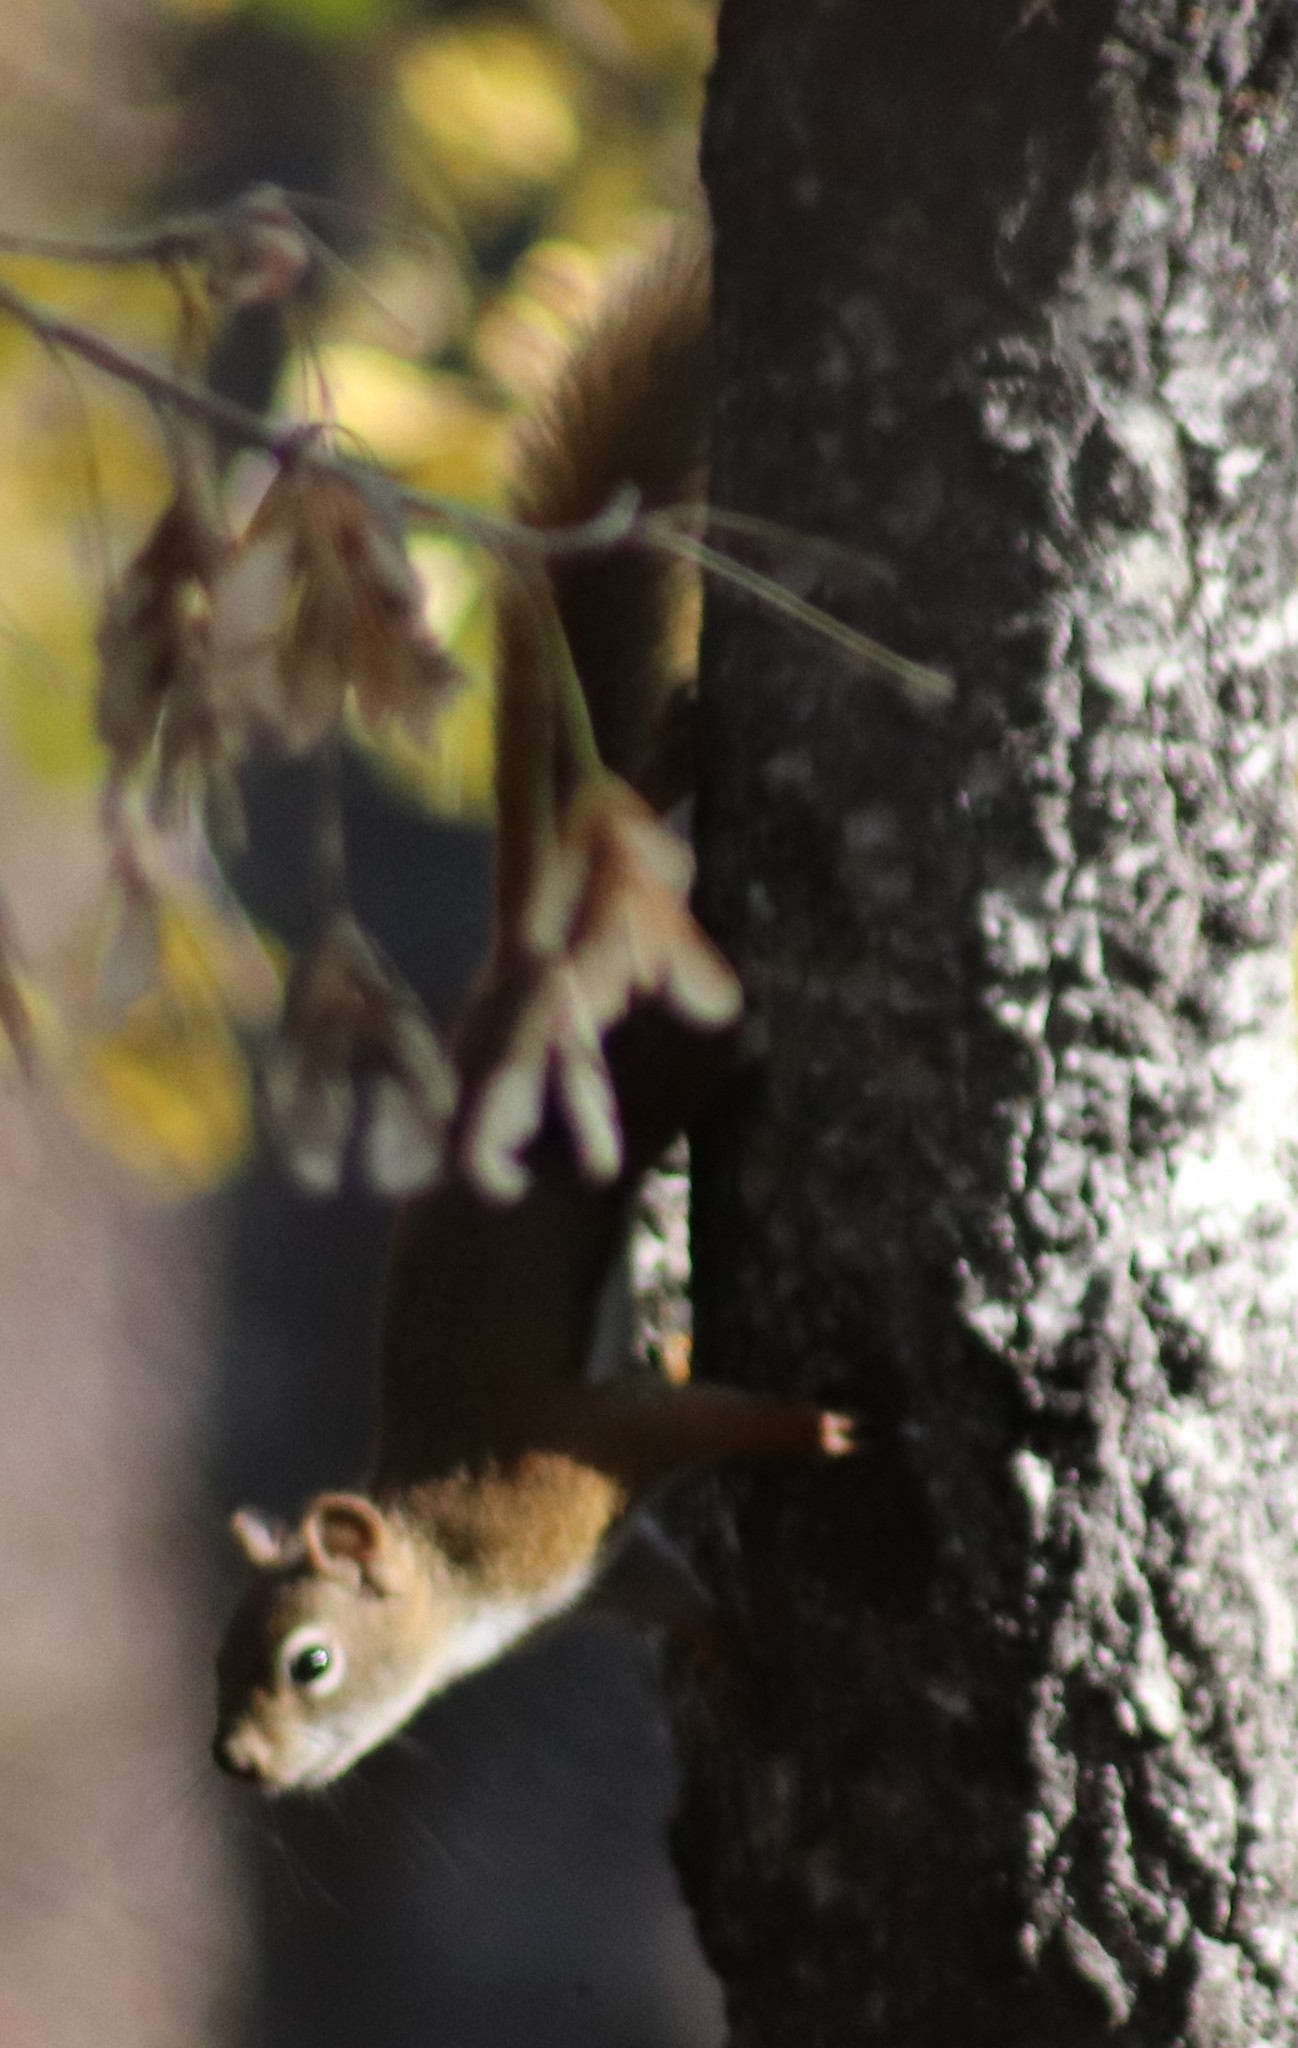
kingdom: Animalia
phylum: Chordata
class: Mammalia
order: Rodentia
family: Sciuridae
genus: Tamiasciurus
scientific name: Tamiasciurus hudsonicus
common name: Red squirrel
